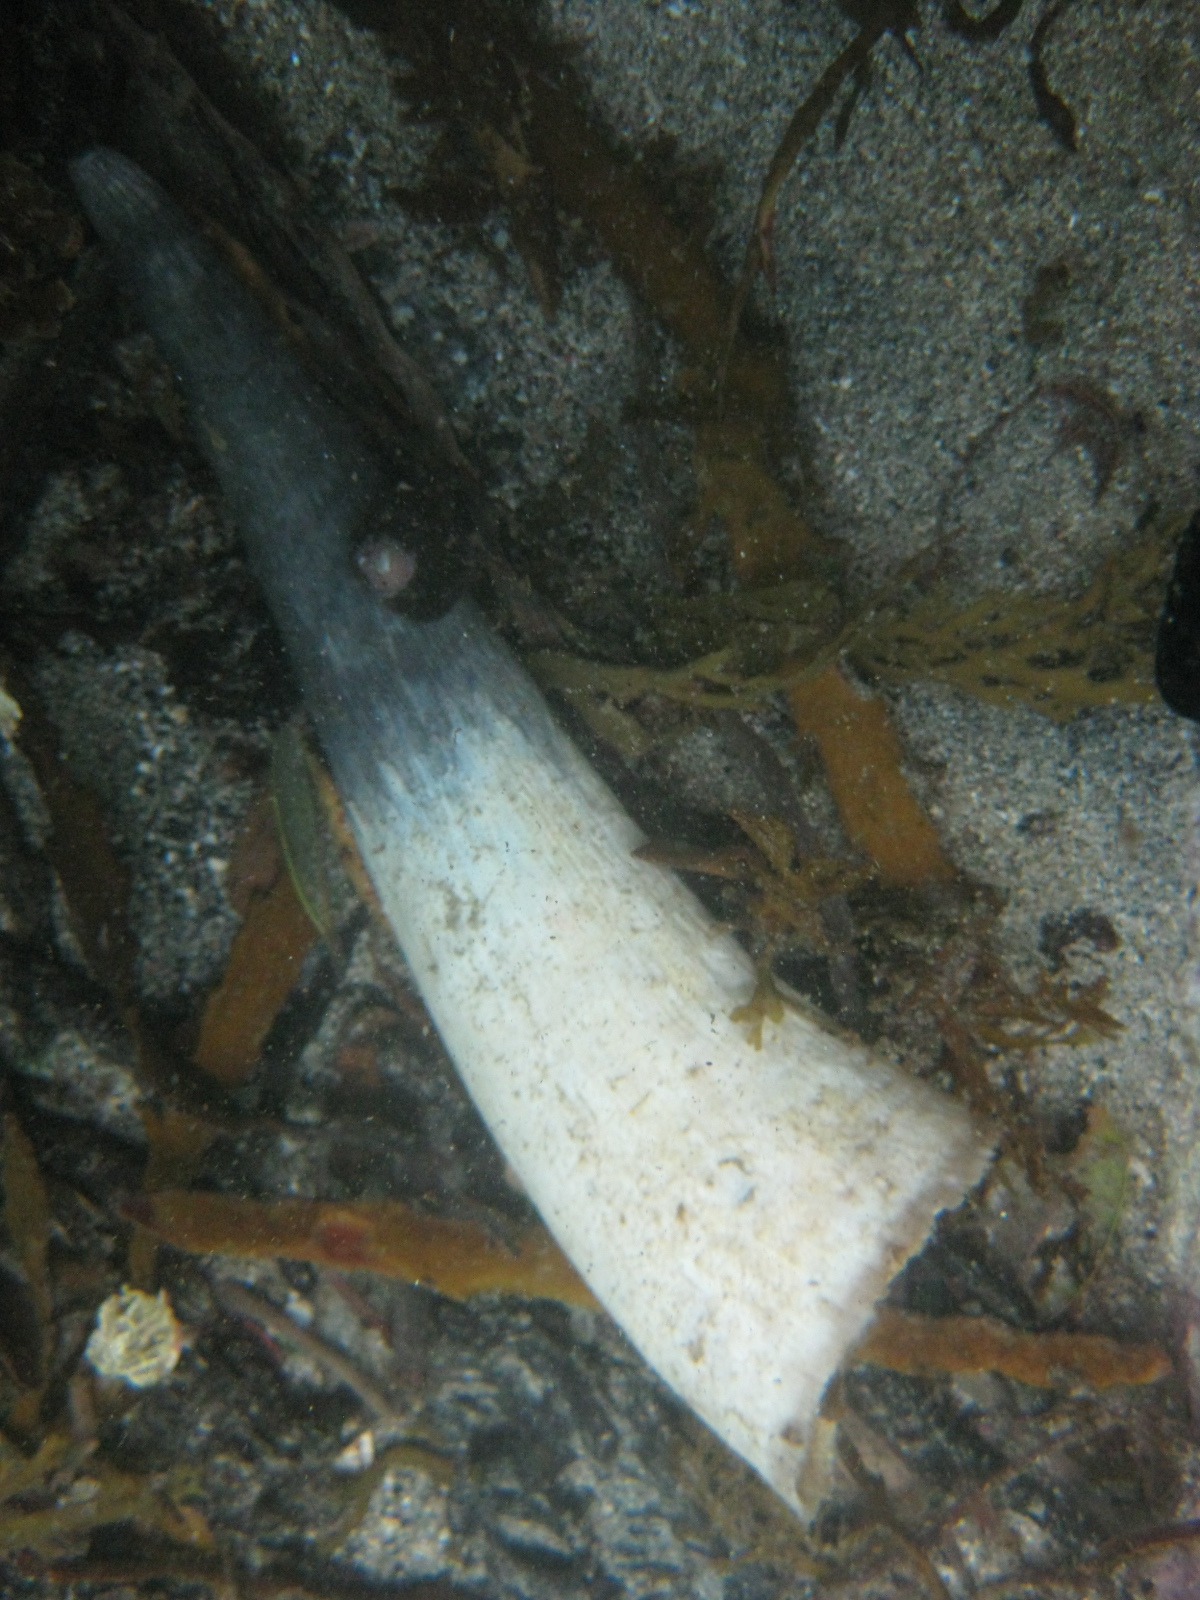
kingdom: Animalia
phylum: Chordata
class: Mammalia
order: Artiodactyla
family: Bovidae
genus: Bos
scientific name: Bos taurus
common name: Domesticated cattle
